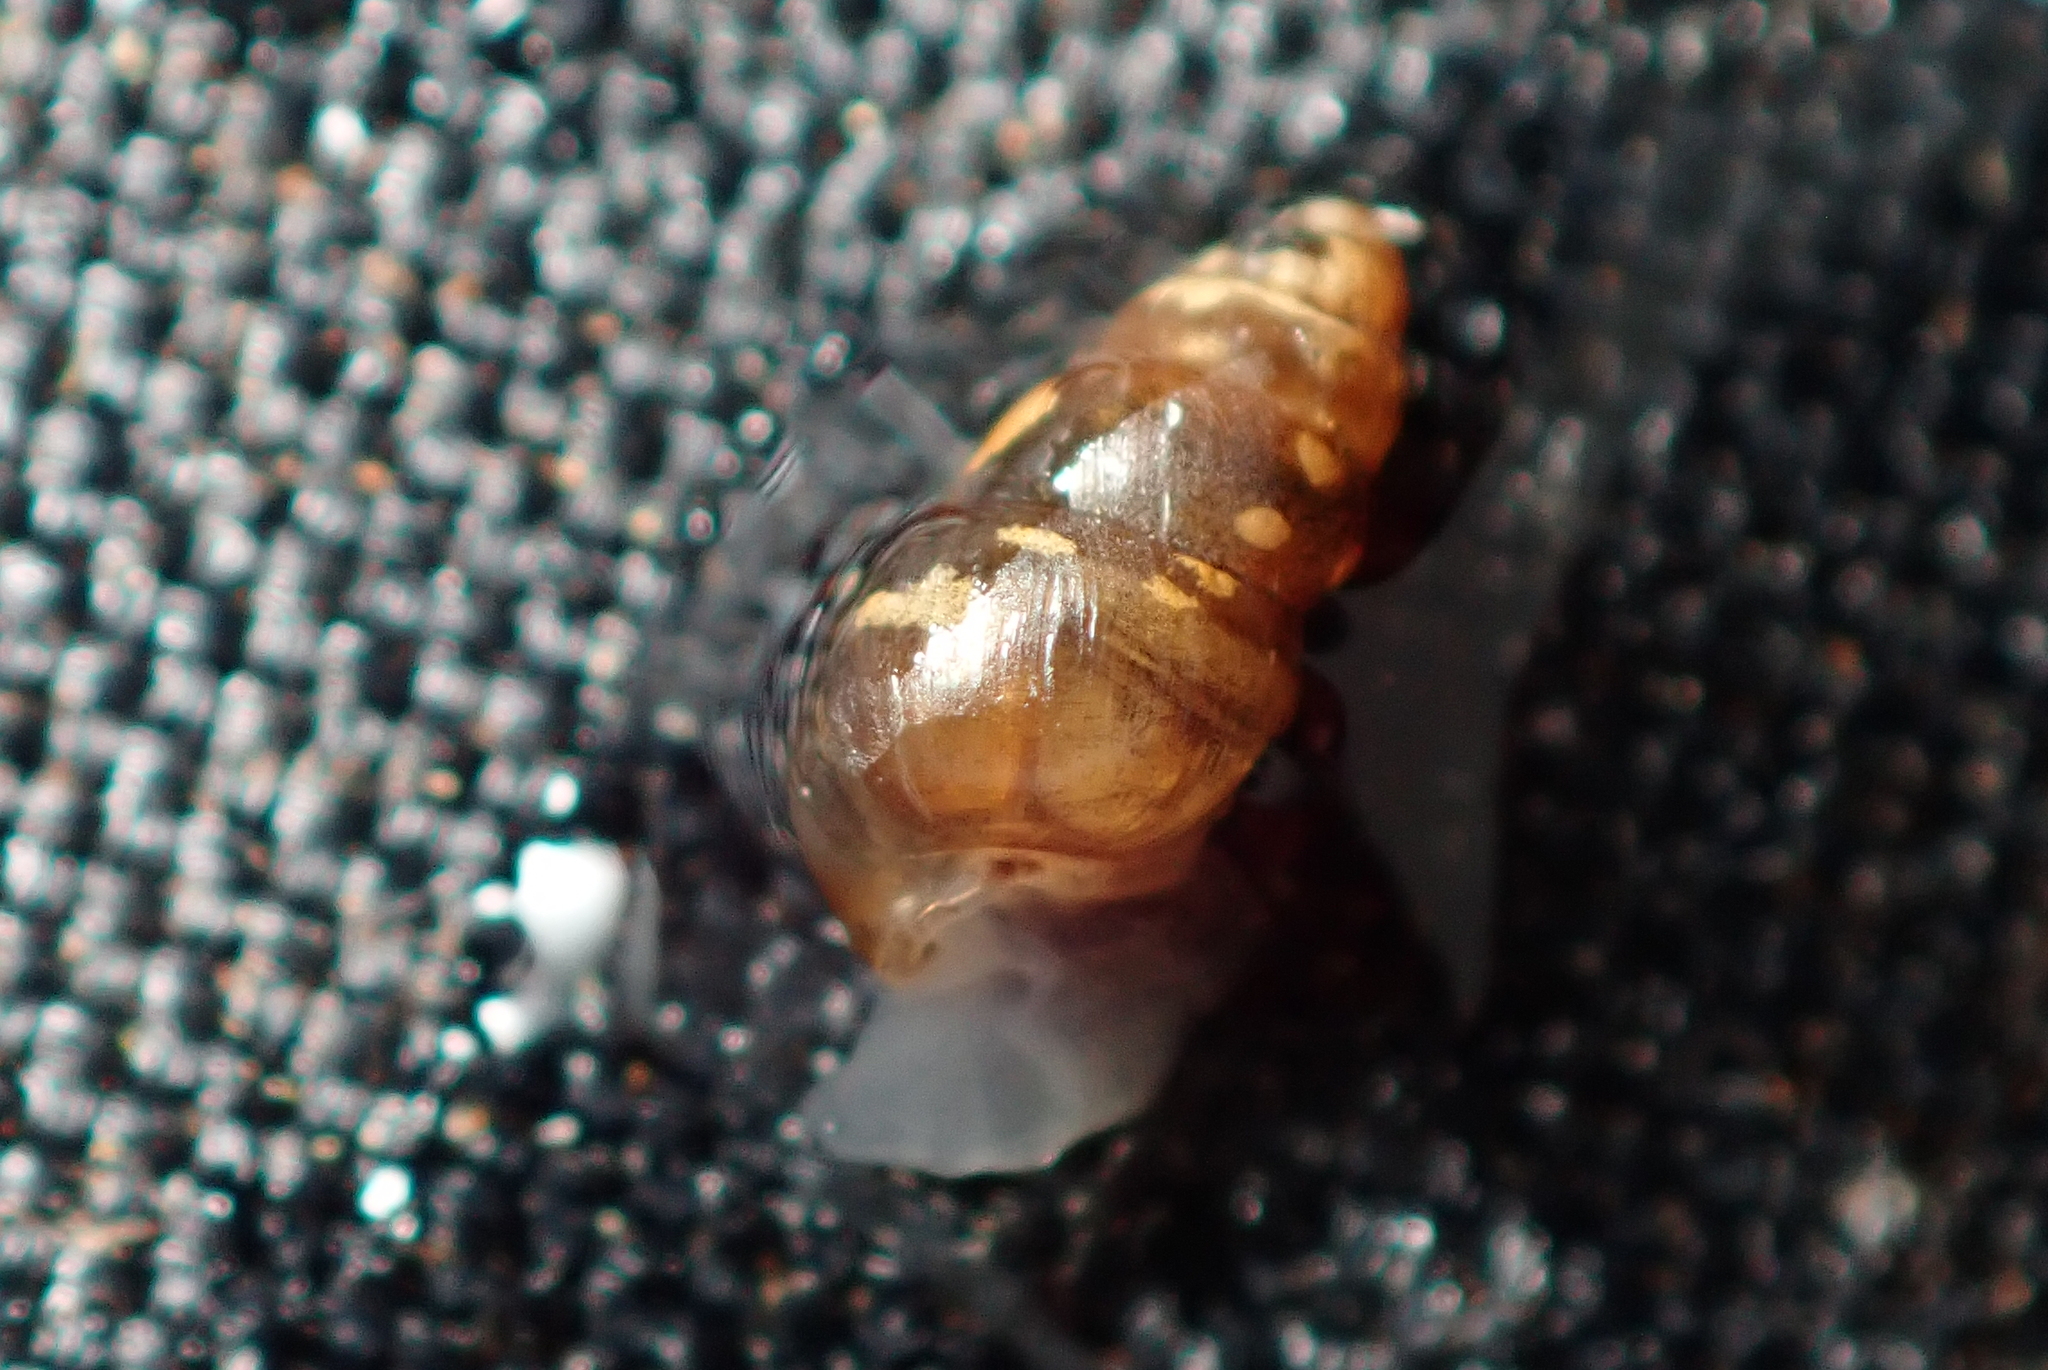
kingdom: Animalia
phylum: Mollusca
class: Gastropoda
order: Stylommatophora
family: Achatinellidae
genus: Tornatellinops
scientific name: Tornatellinops novoseelandicus
